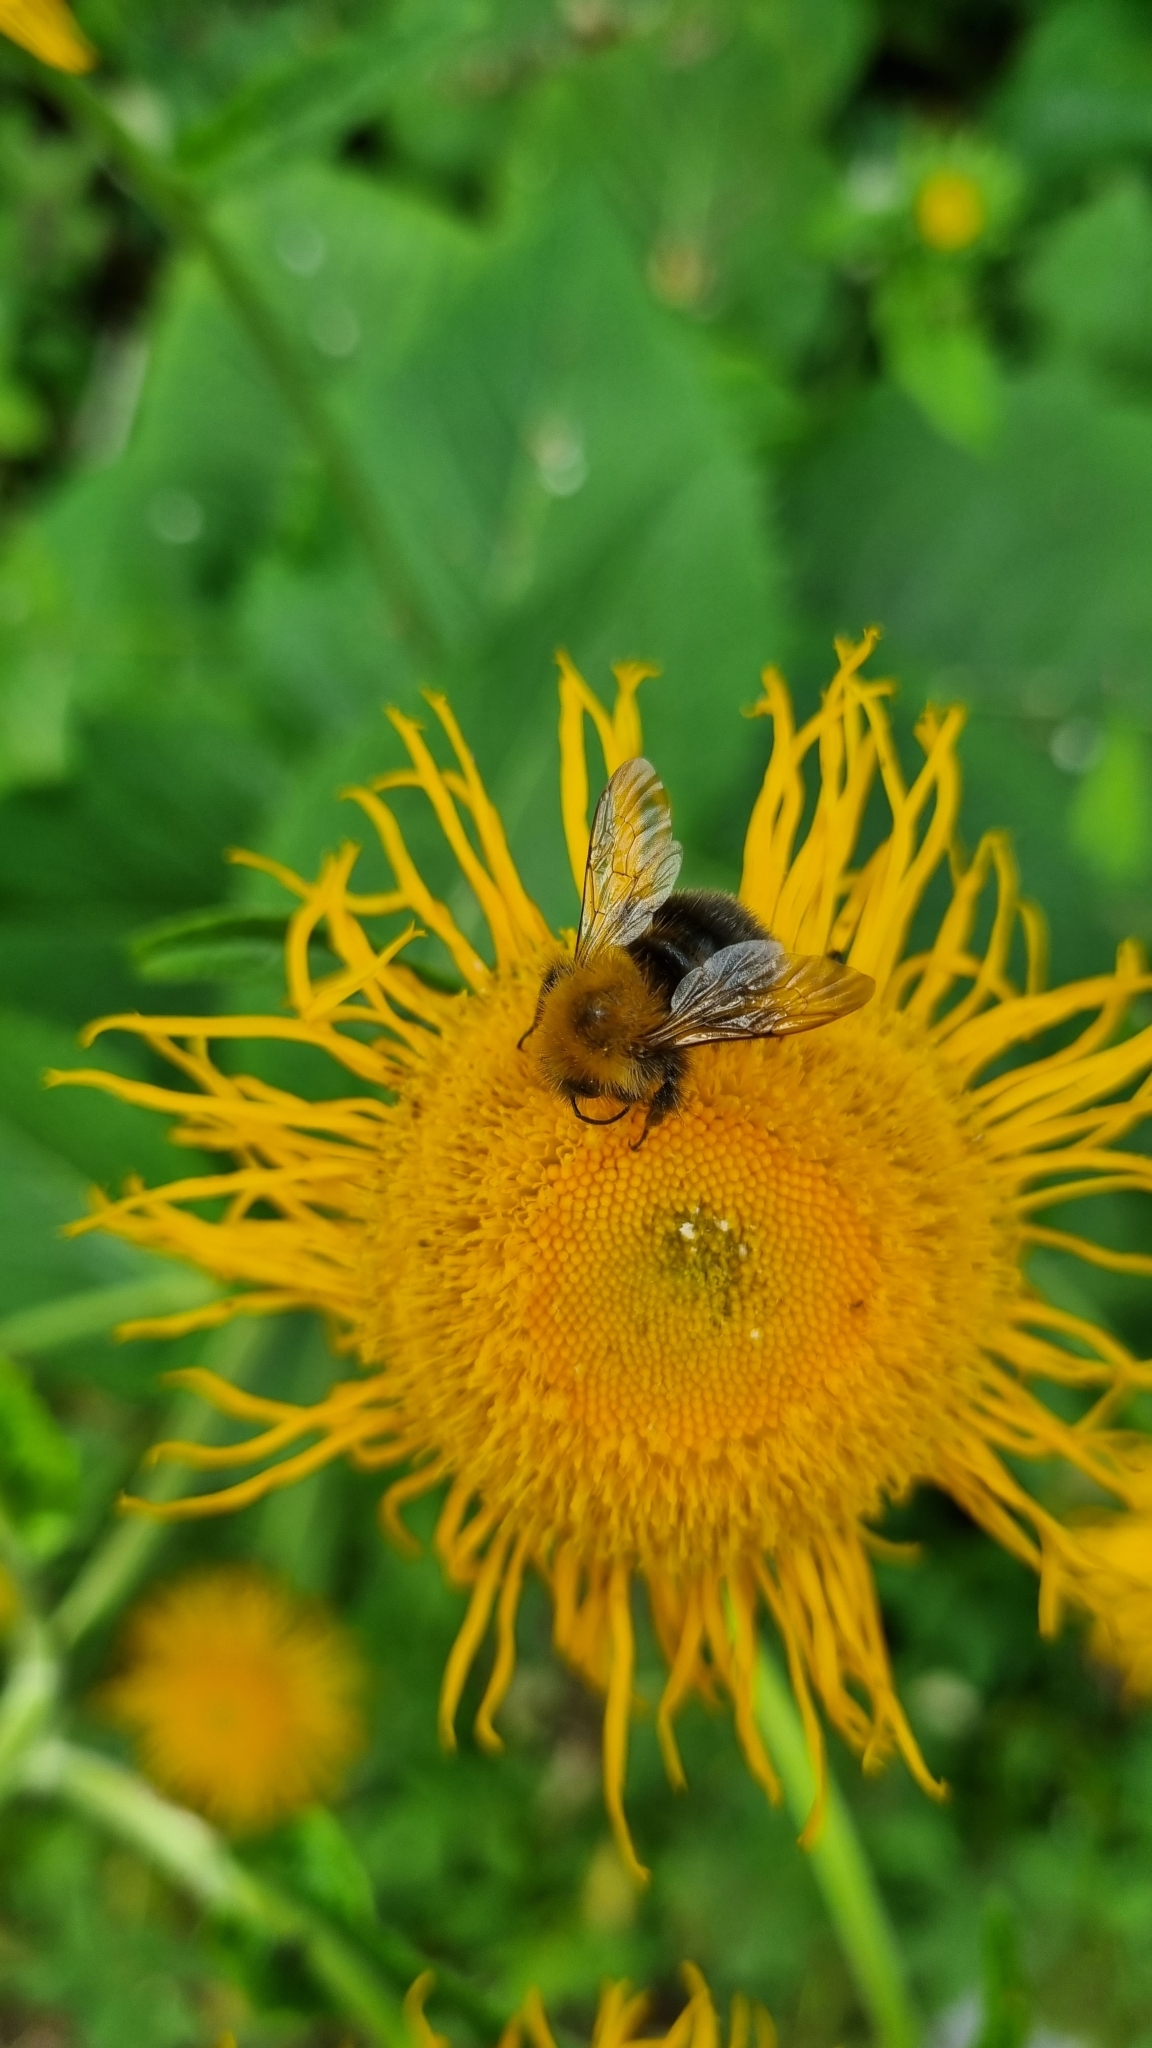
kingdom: Animalia
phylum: Arthropoda
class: Insecta
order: Hymenoptera
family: Apidae
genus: Bombus
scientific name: Bombus hypnorum
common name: New garden bumblebee
